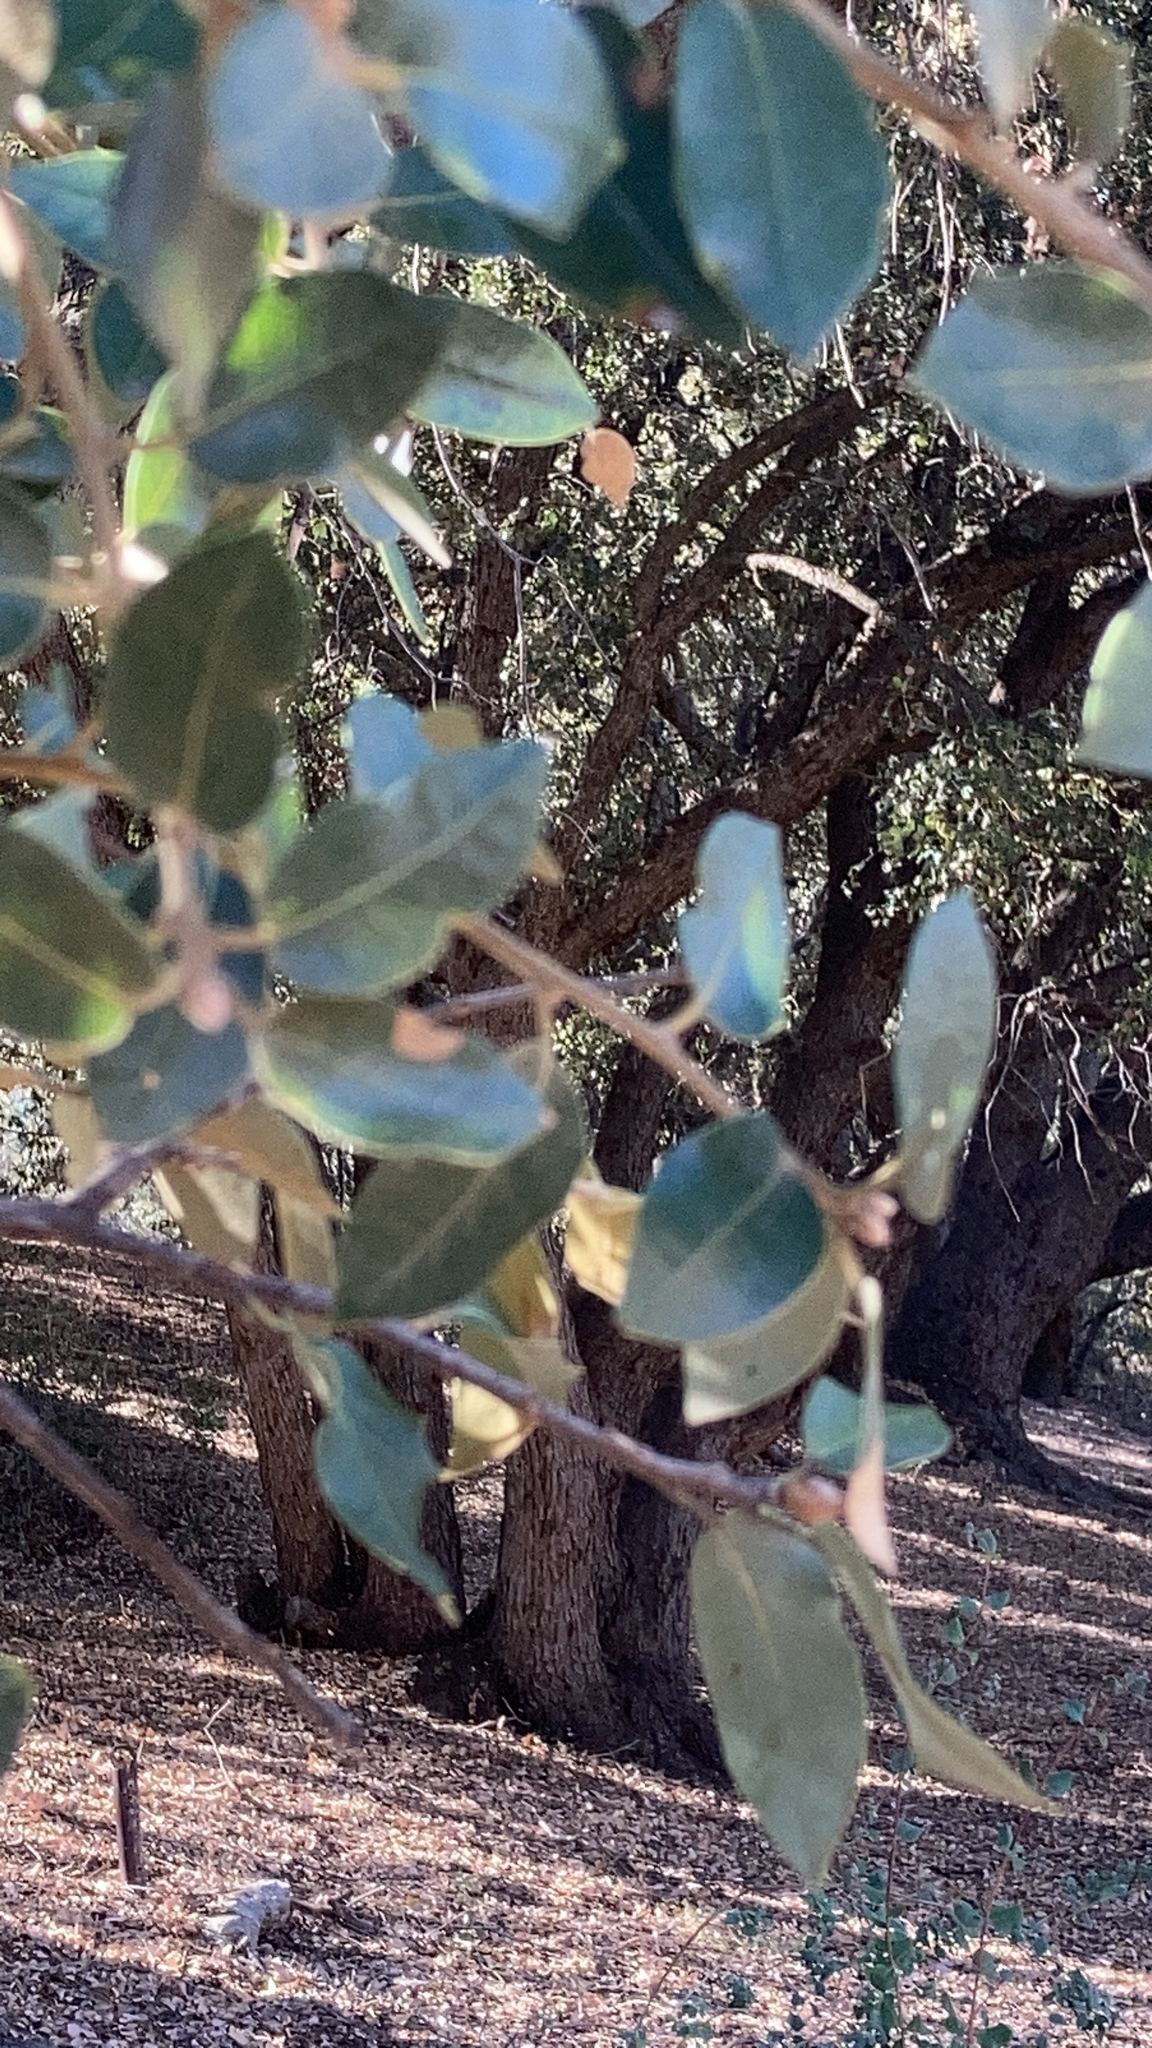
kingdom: Plantae
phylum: Tracheophyta
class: Magnoliopsida
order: Fagales
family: Fagaceae
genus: Quercus
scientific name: Quercus chrysolepis
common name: Canyon live oak
